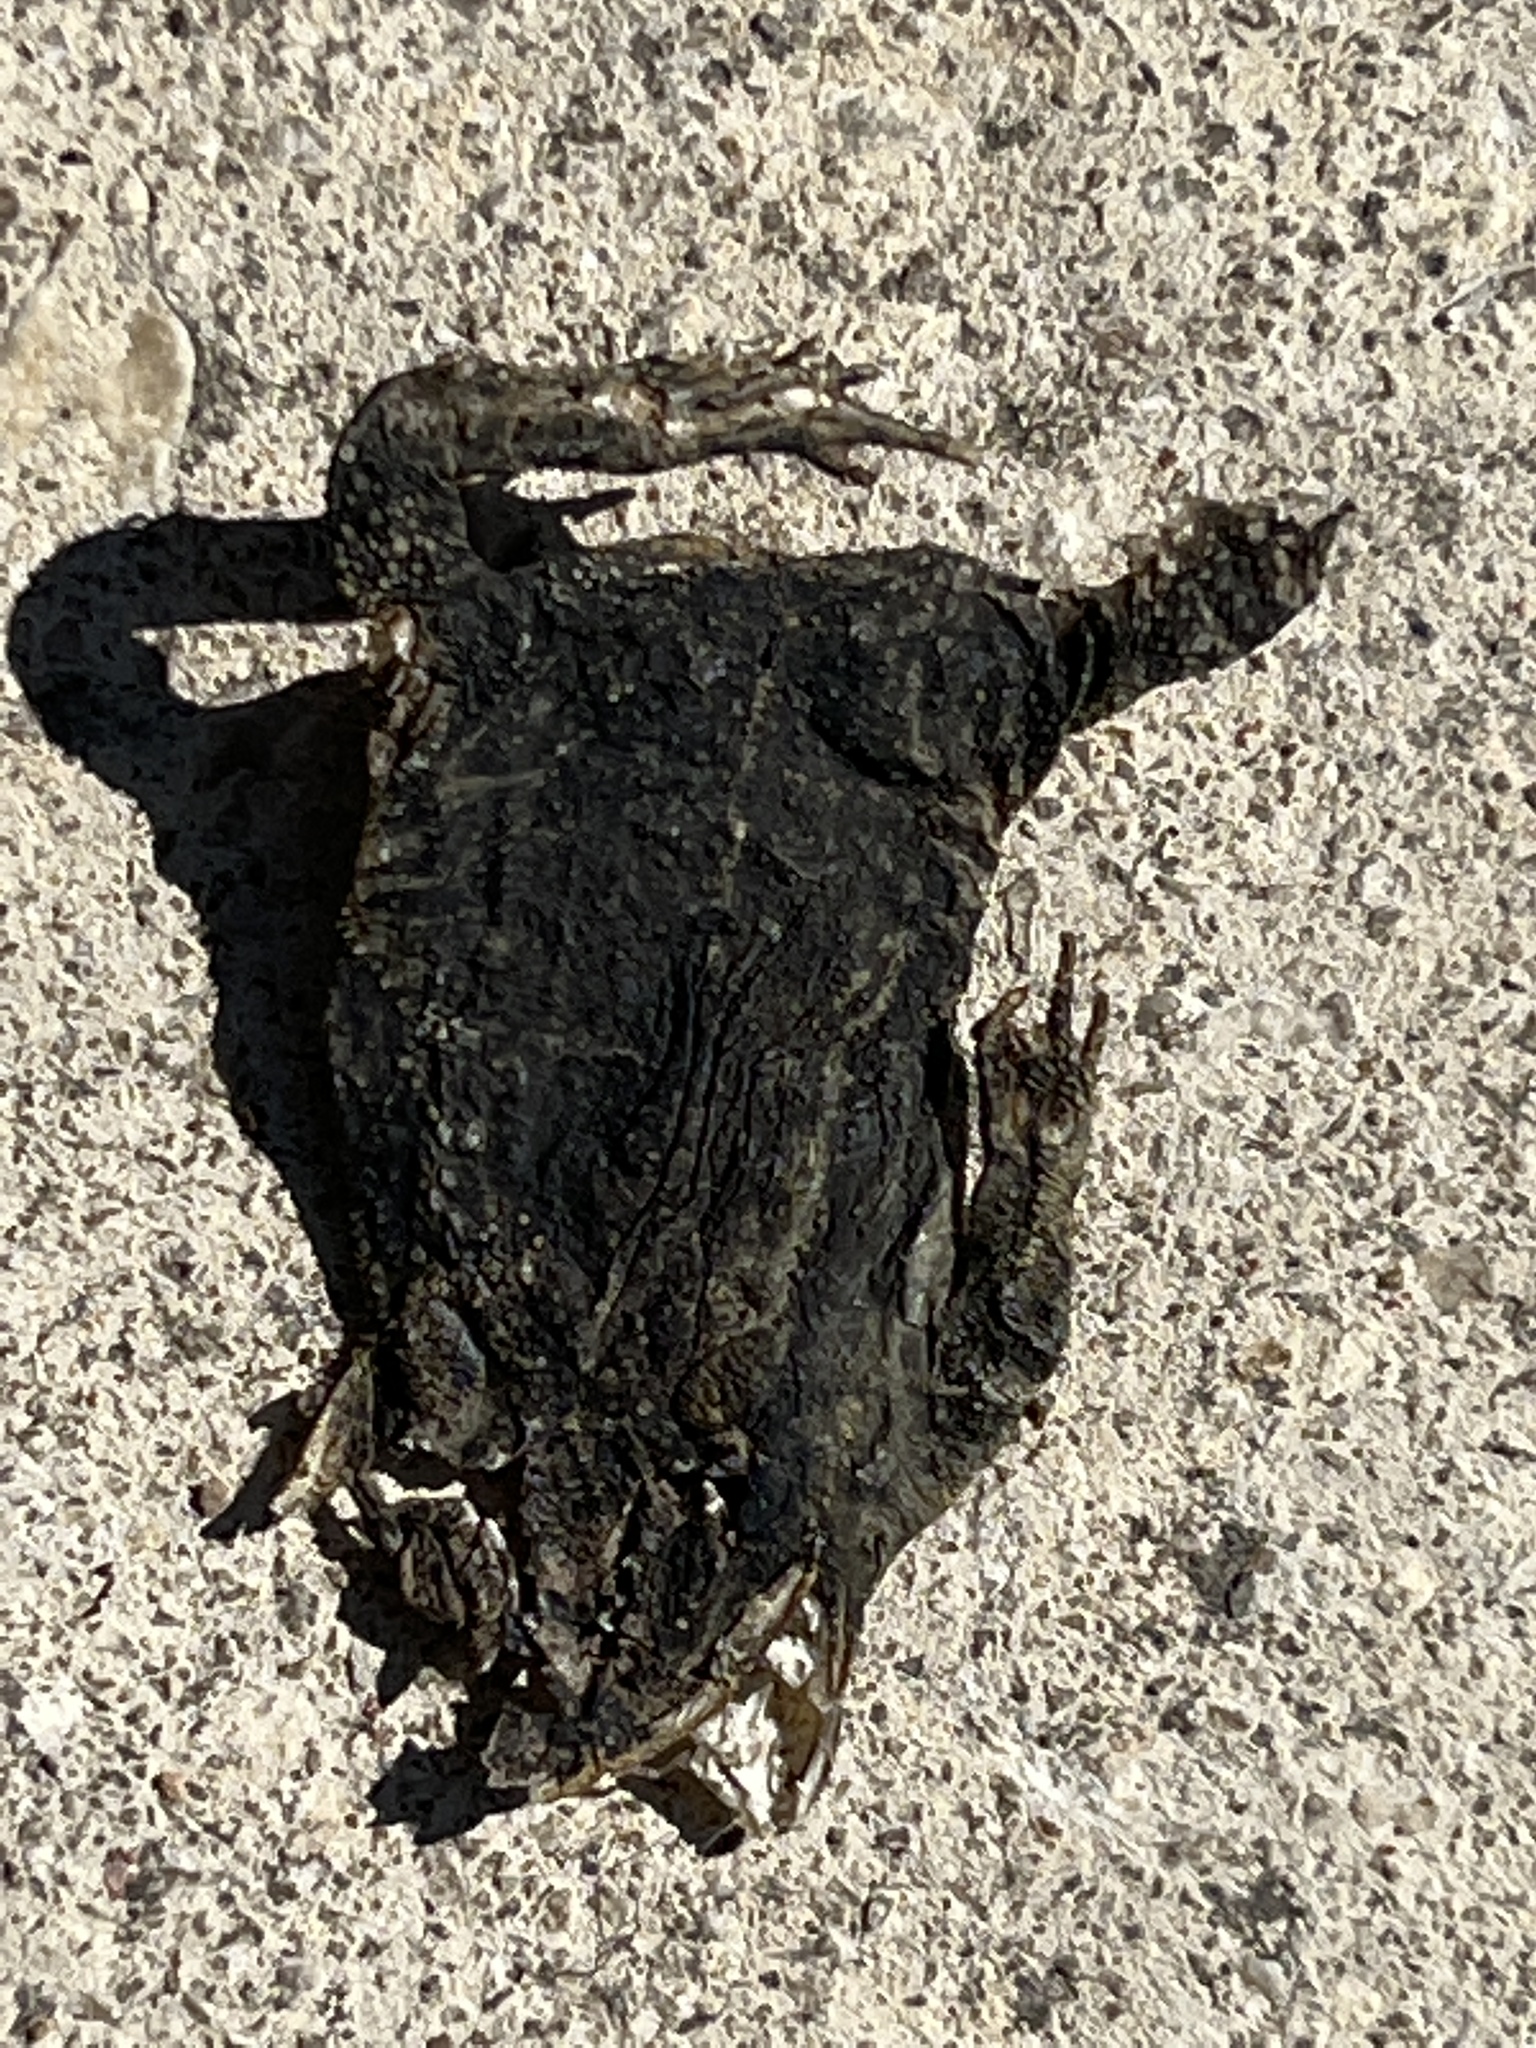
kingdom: Animalia
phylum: Chordata
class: Amphibia
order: Anura
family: Bufonidae
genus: Incilius
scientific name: Incilius nebulifer
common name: Gulf coast toad
